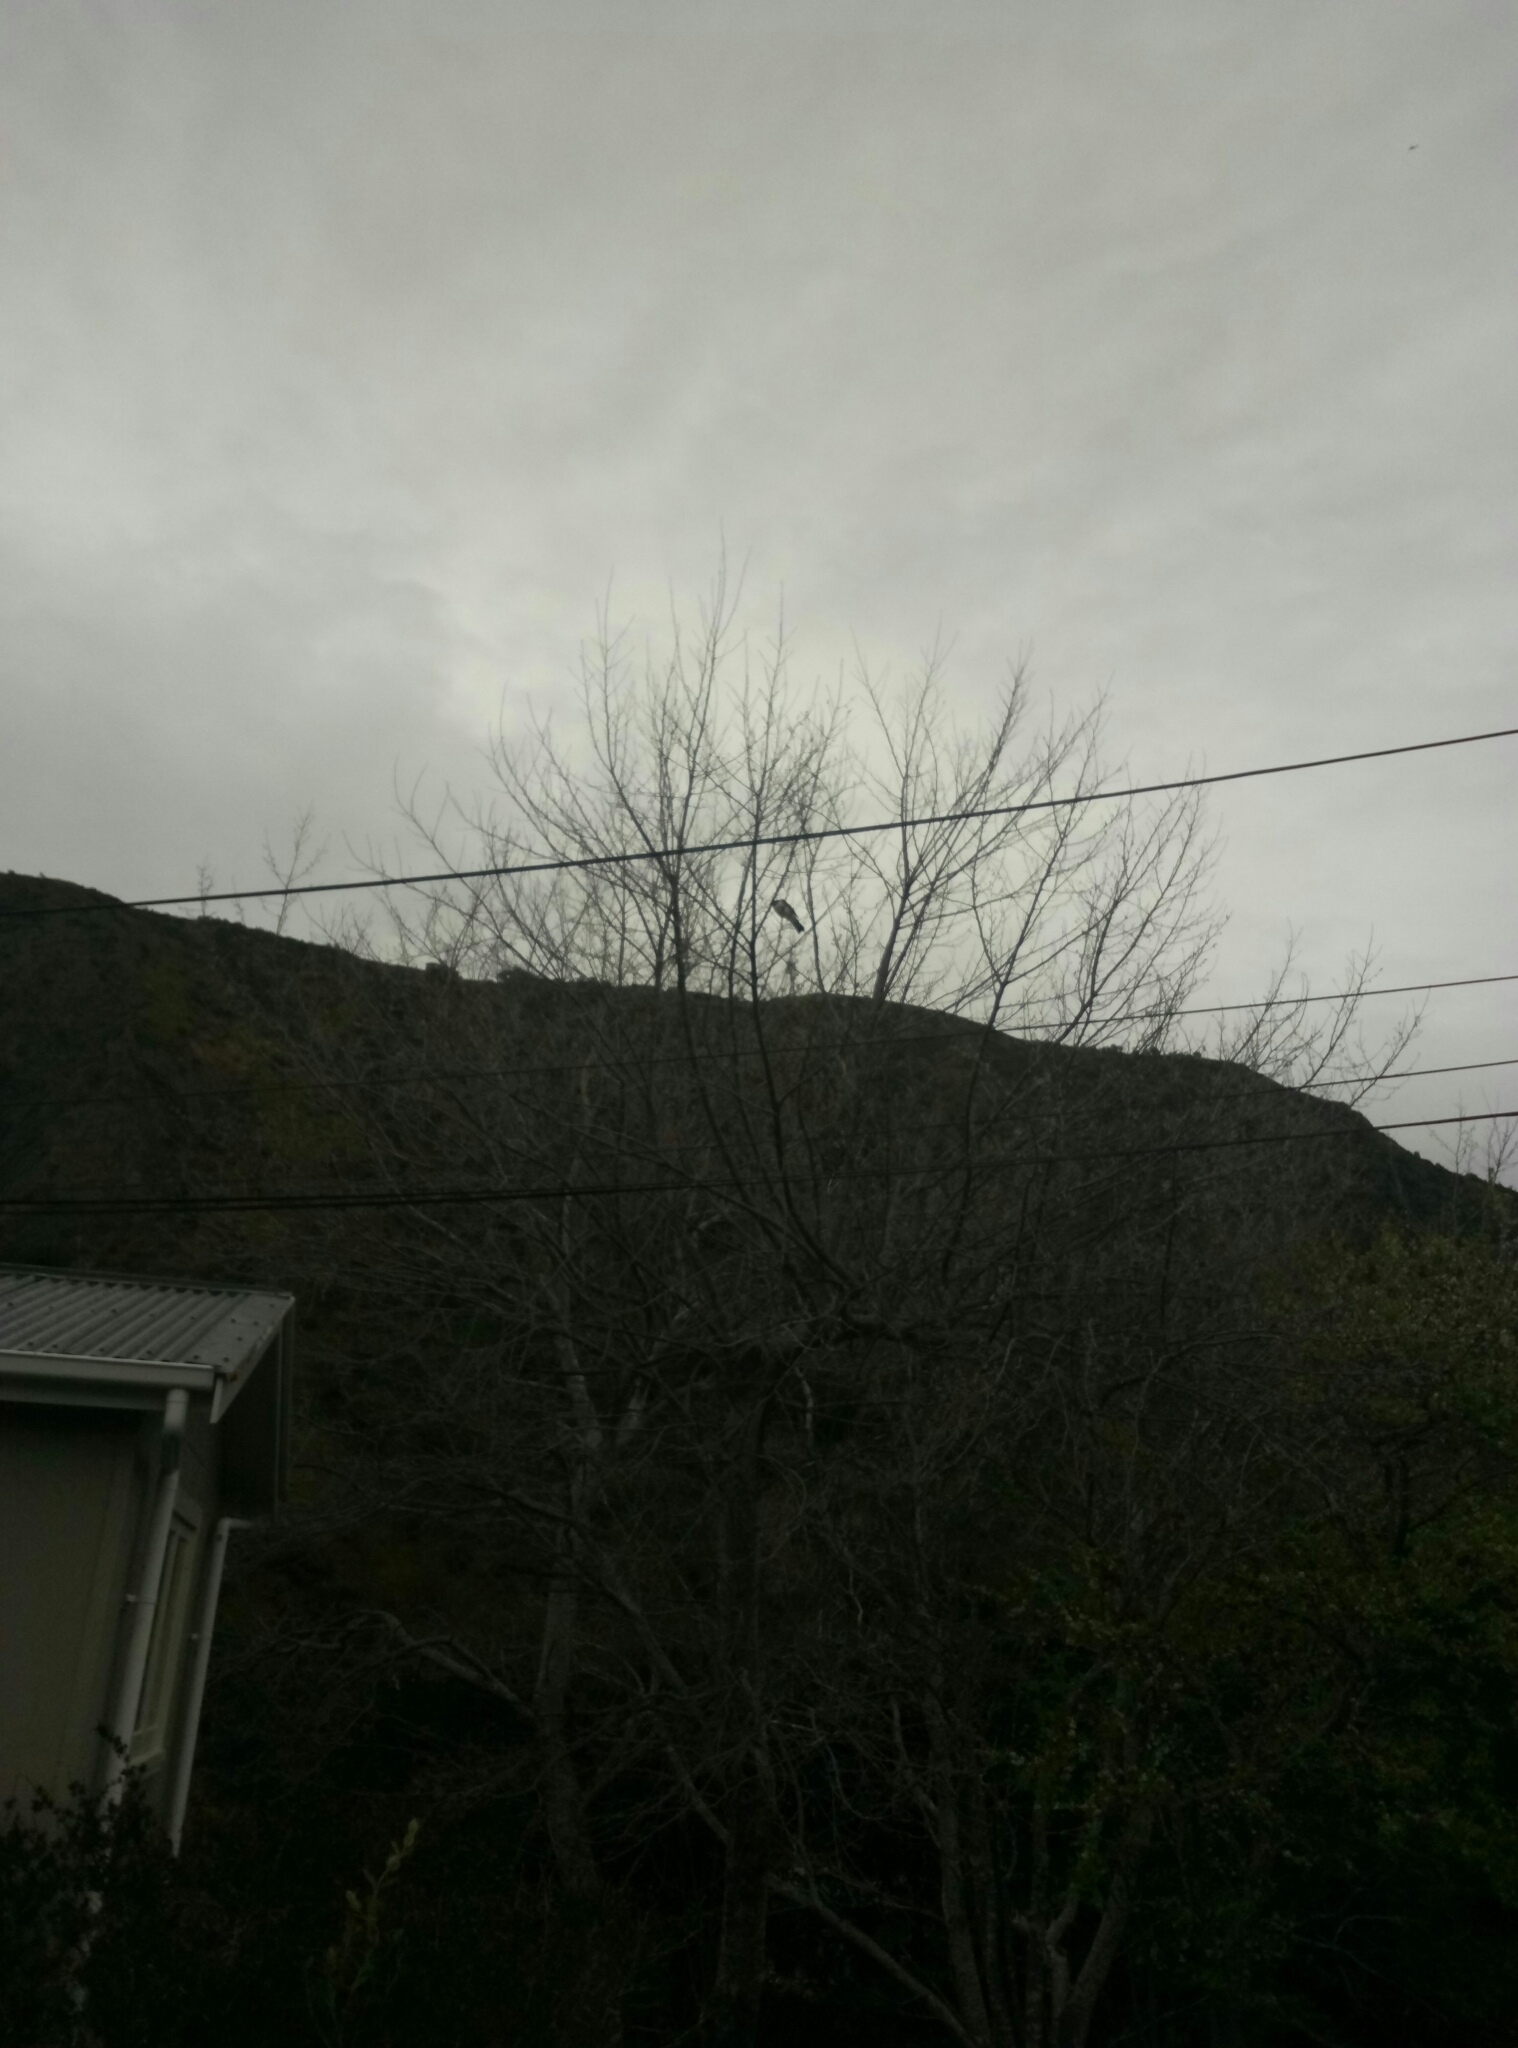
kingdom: Animalia
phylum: Chordata
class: Aves
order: Columbiformes
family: Columbidae
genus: Hemiphaga
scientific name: Hemiphaga novaeseelandiae
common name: New zealand pigeon
